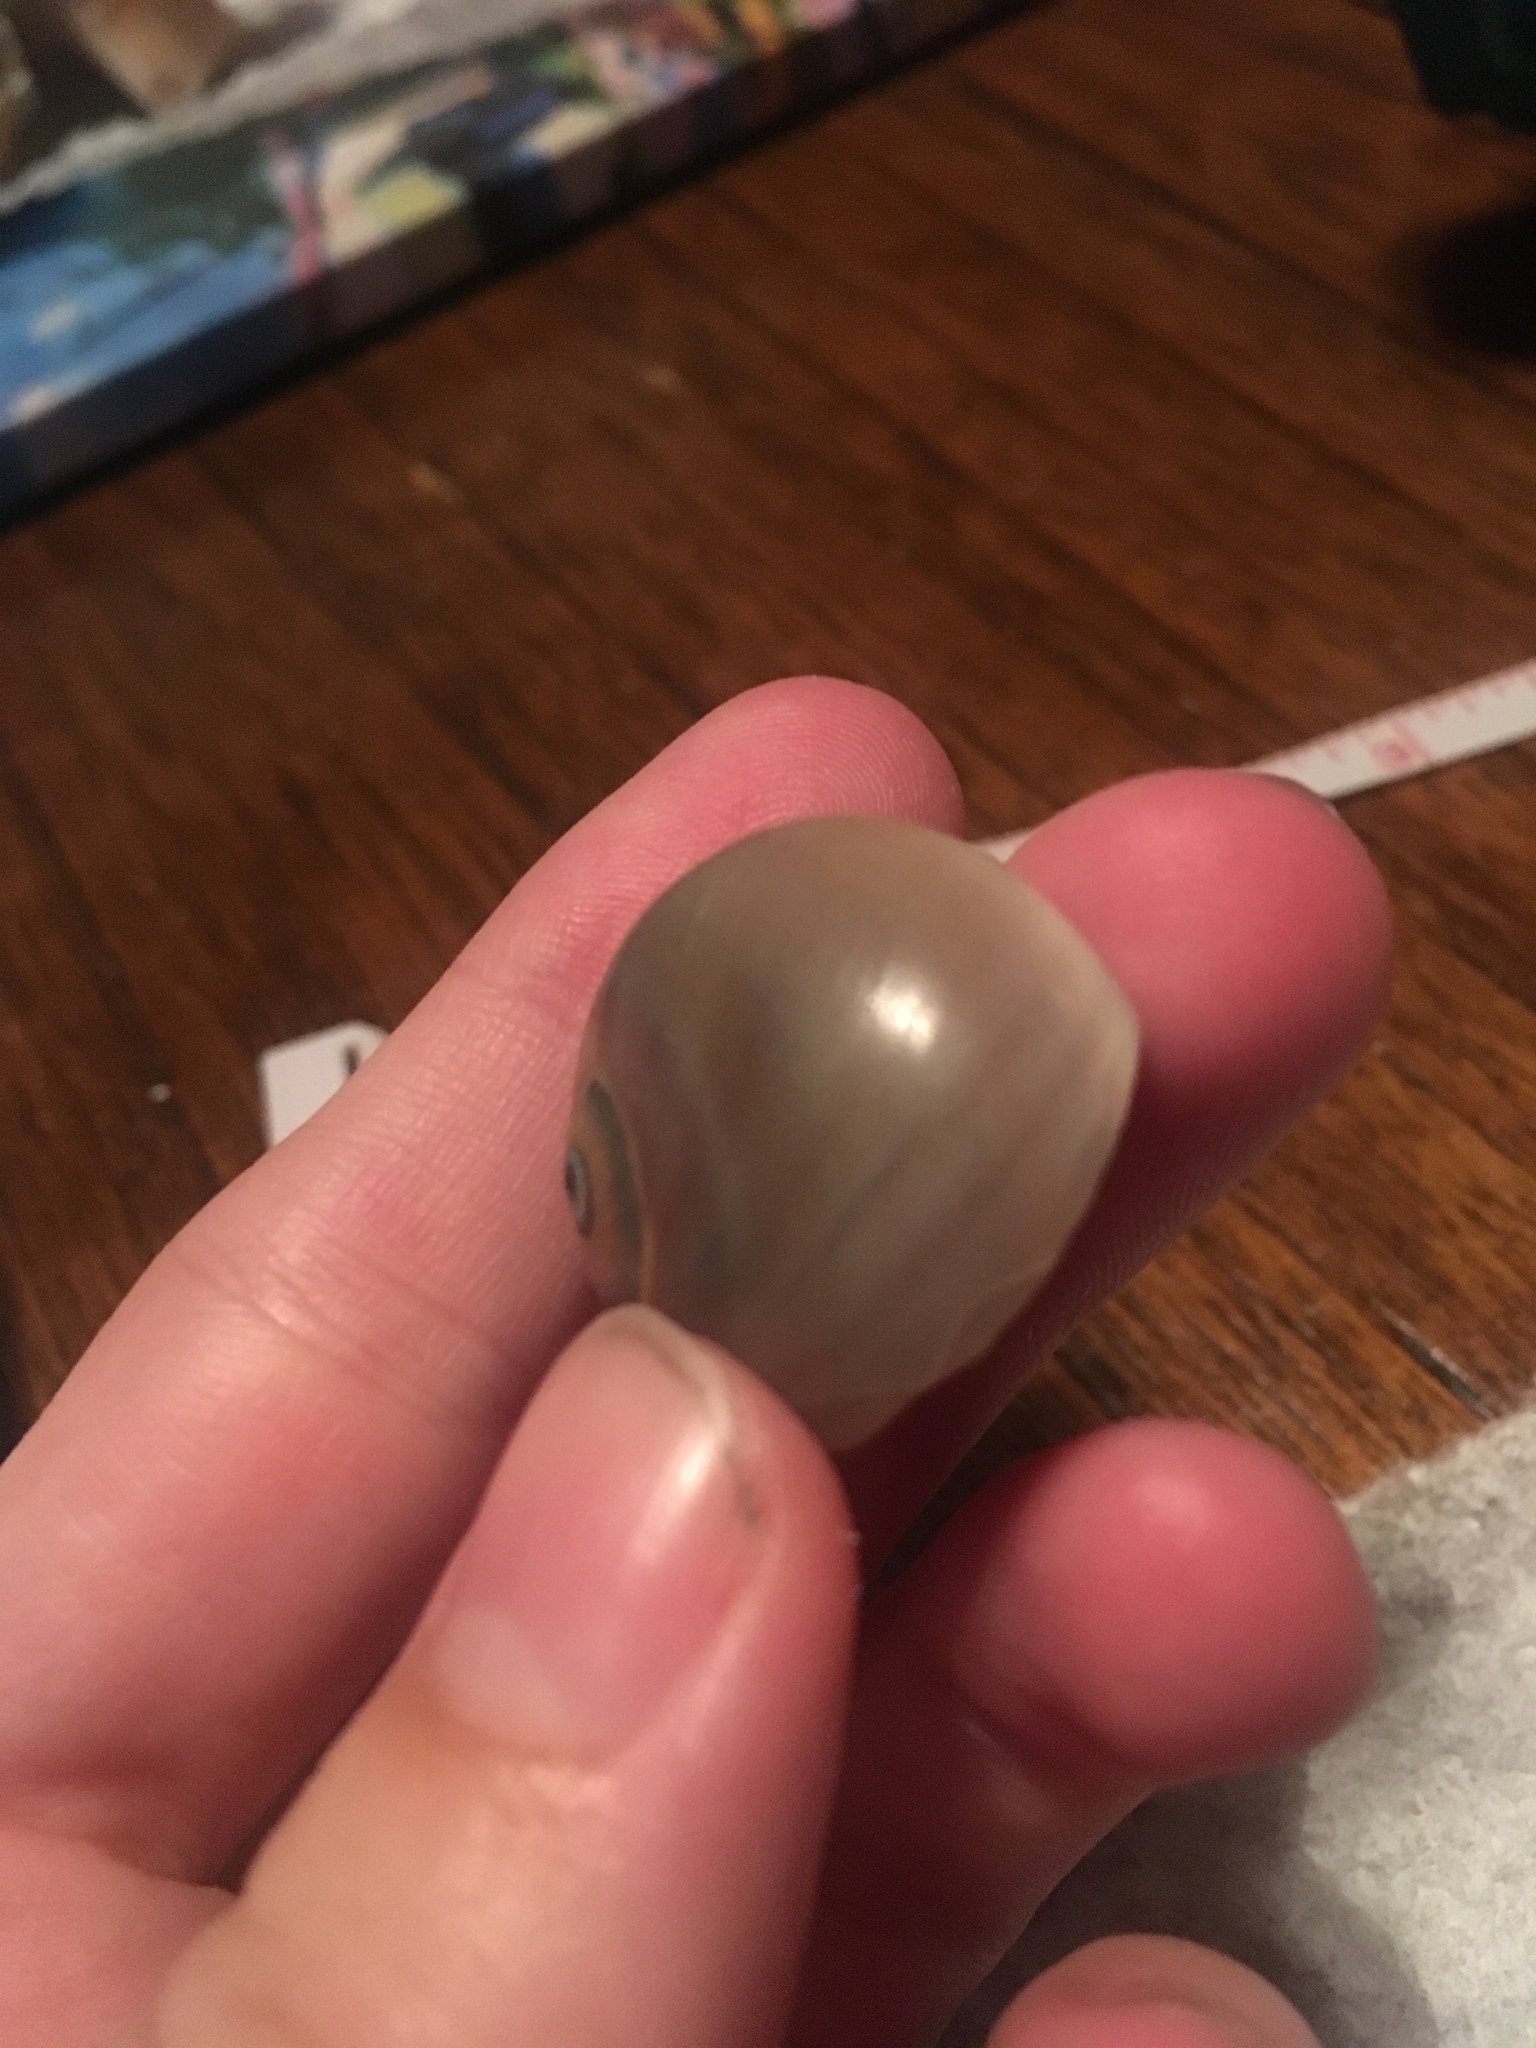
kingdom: Animalia
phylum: Mollusca
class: Gastropoda
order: Littorinimorpha
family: Naticidae
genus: Neverita
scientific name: Neverita duplicata
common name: Lobed moonsnail
